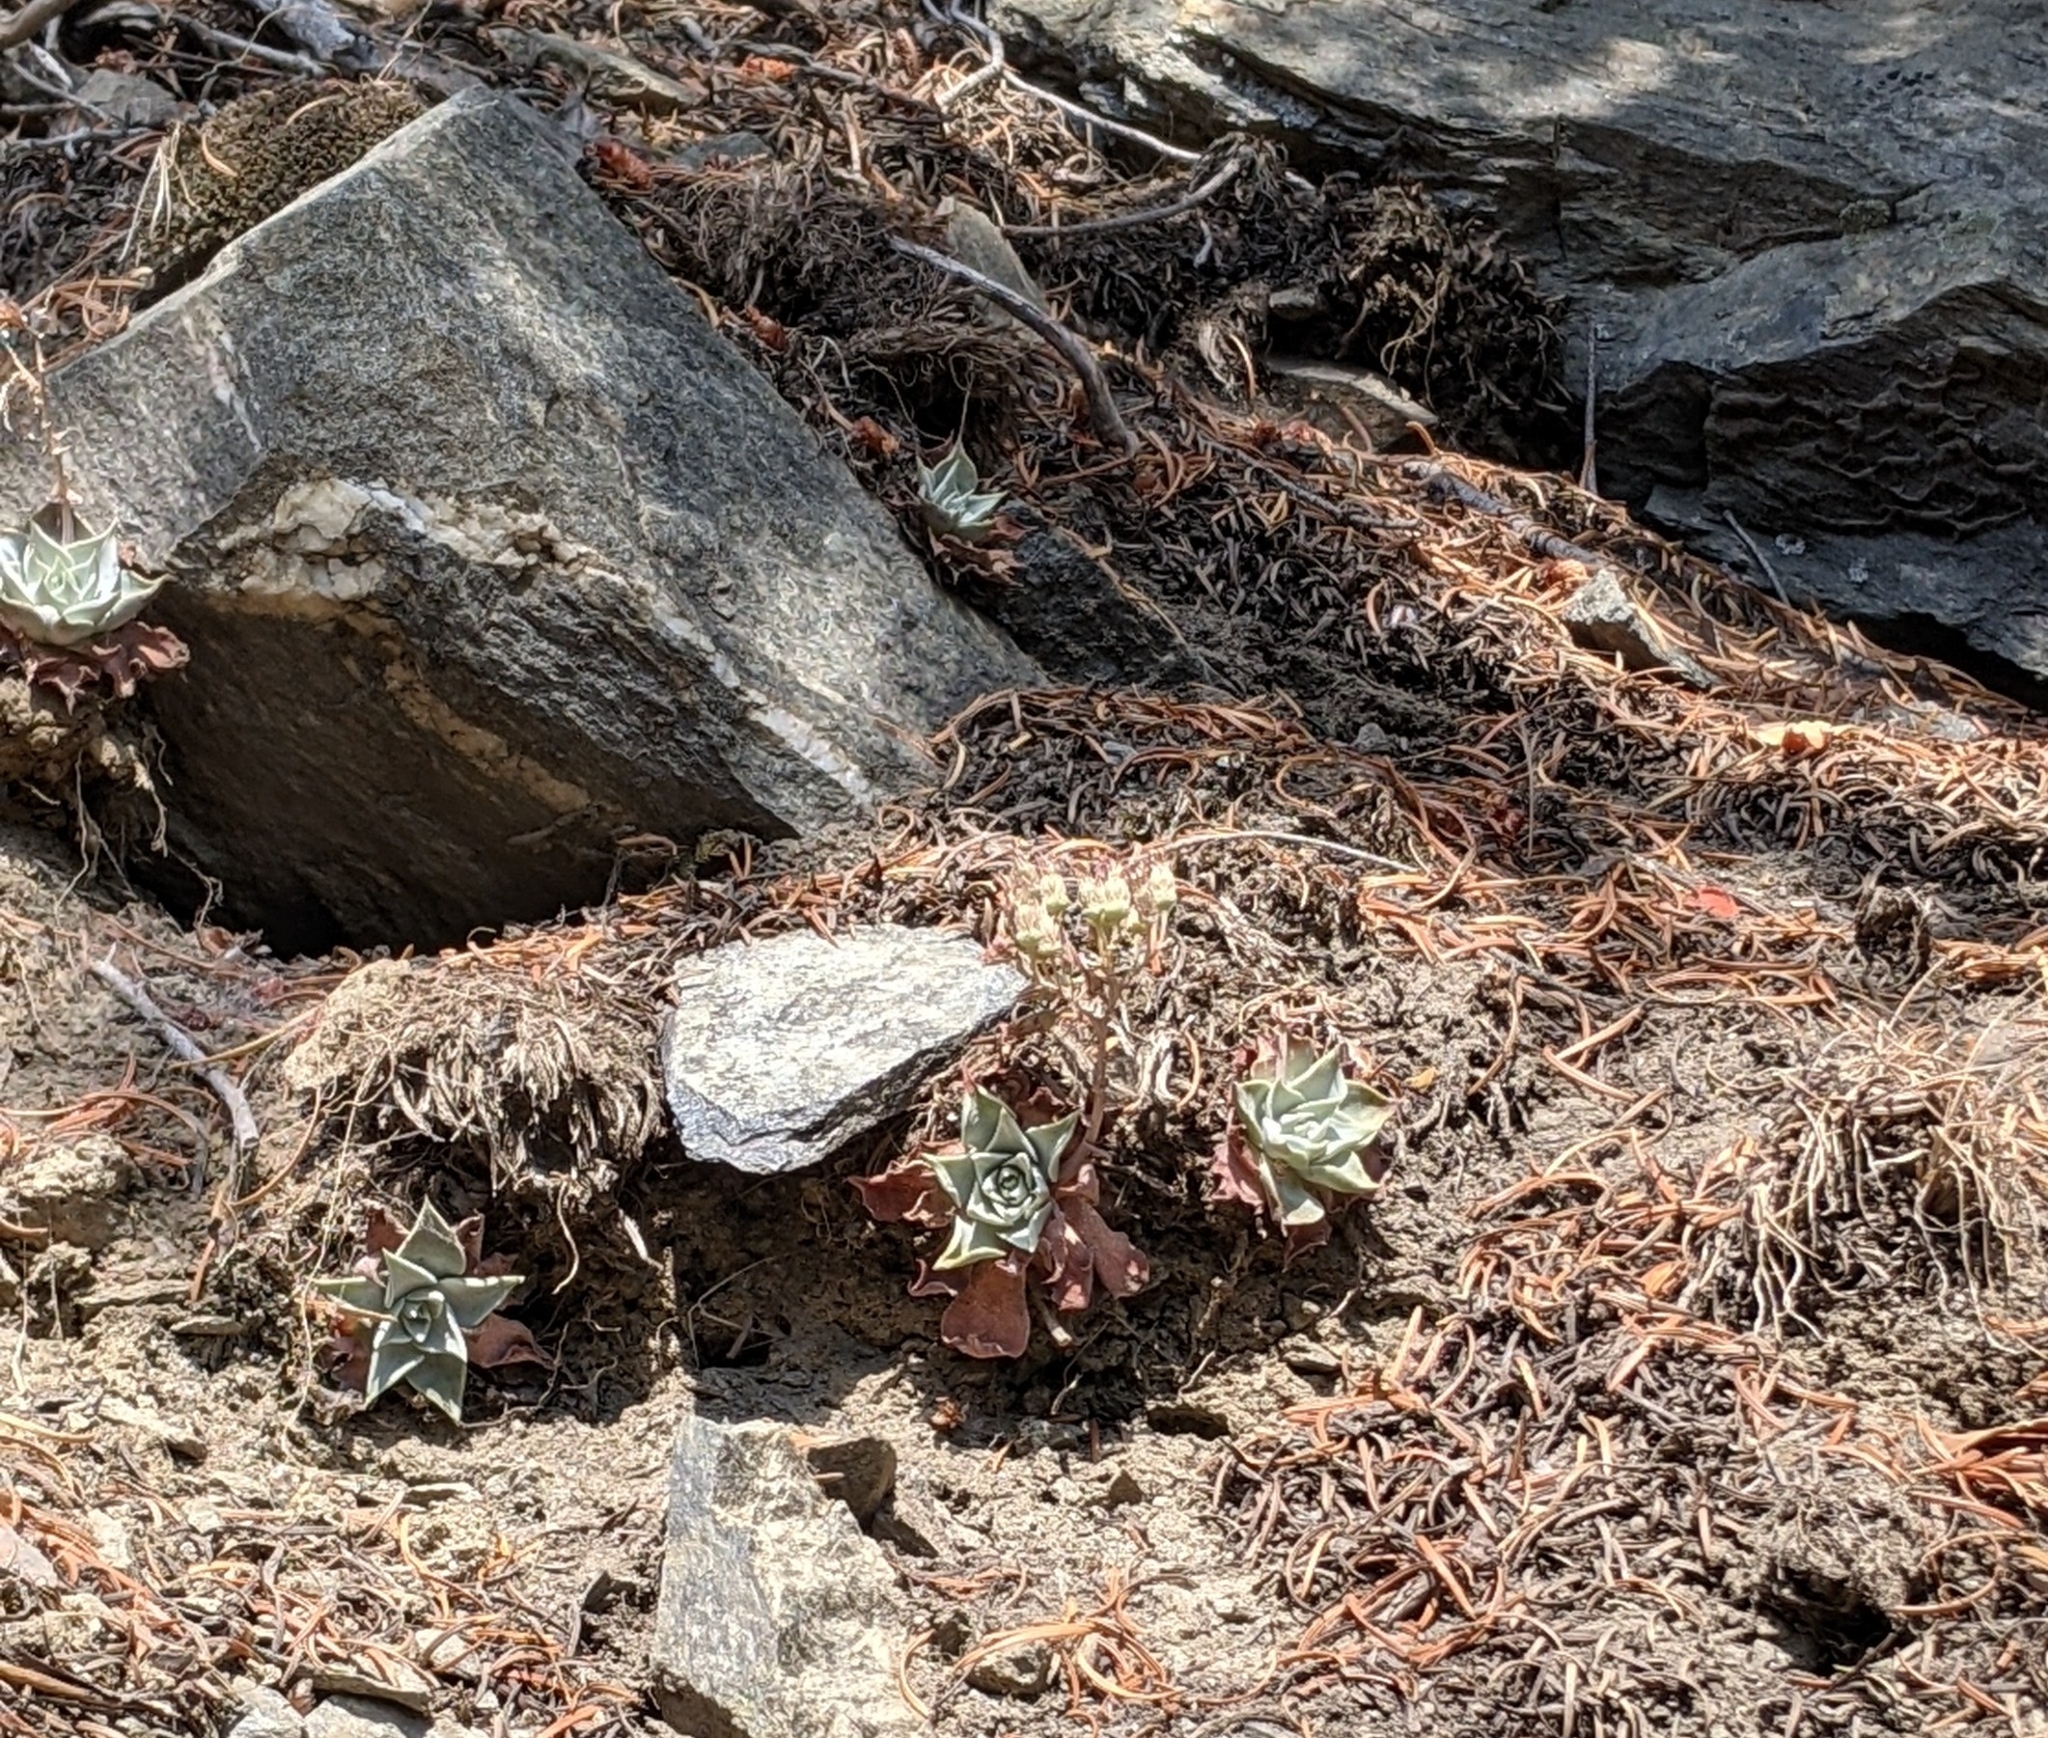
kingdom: Plantae
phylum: Tracheophyta
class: Magnoliopsida
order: Saxifragales
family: Crassulaceae
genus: Dudleya
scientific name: Dudleya cymosa
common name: Canyon dudleya
